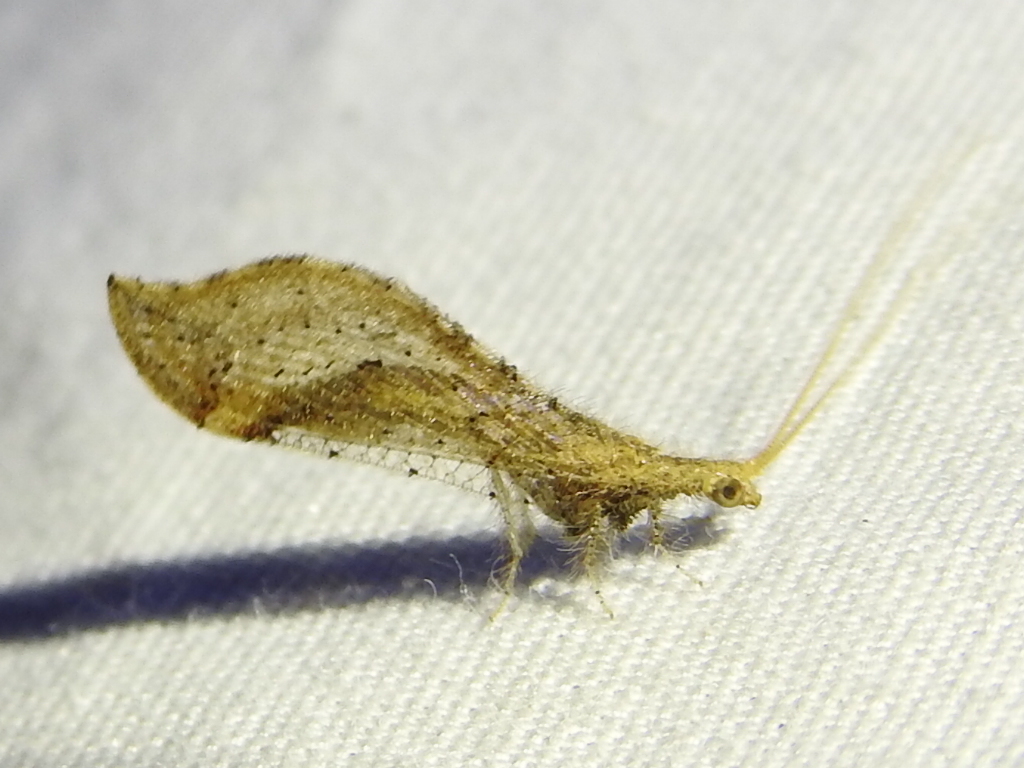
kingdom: Animalia
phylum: Arthropoda
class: Insecta
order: Neuroptera
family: Berothidae
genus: Lomamyia
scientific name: Lomamyia squamosa
